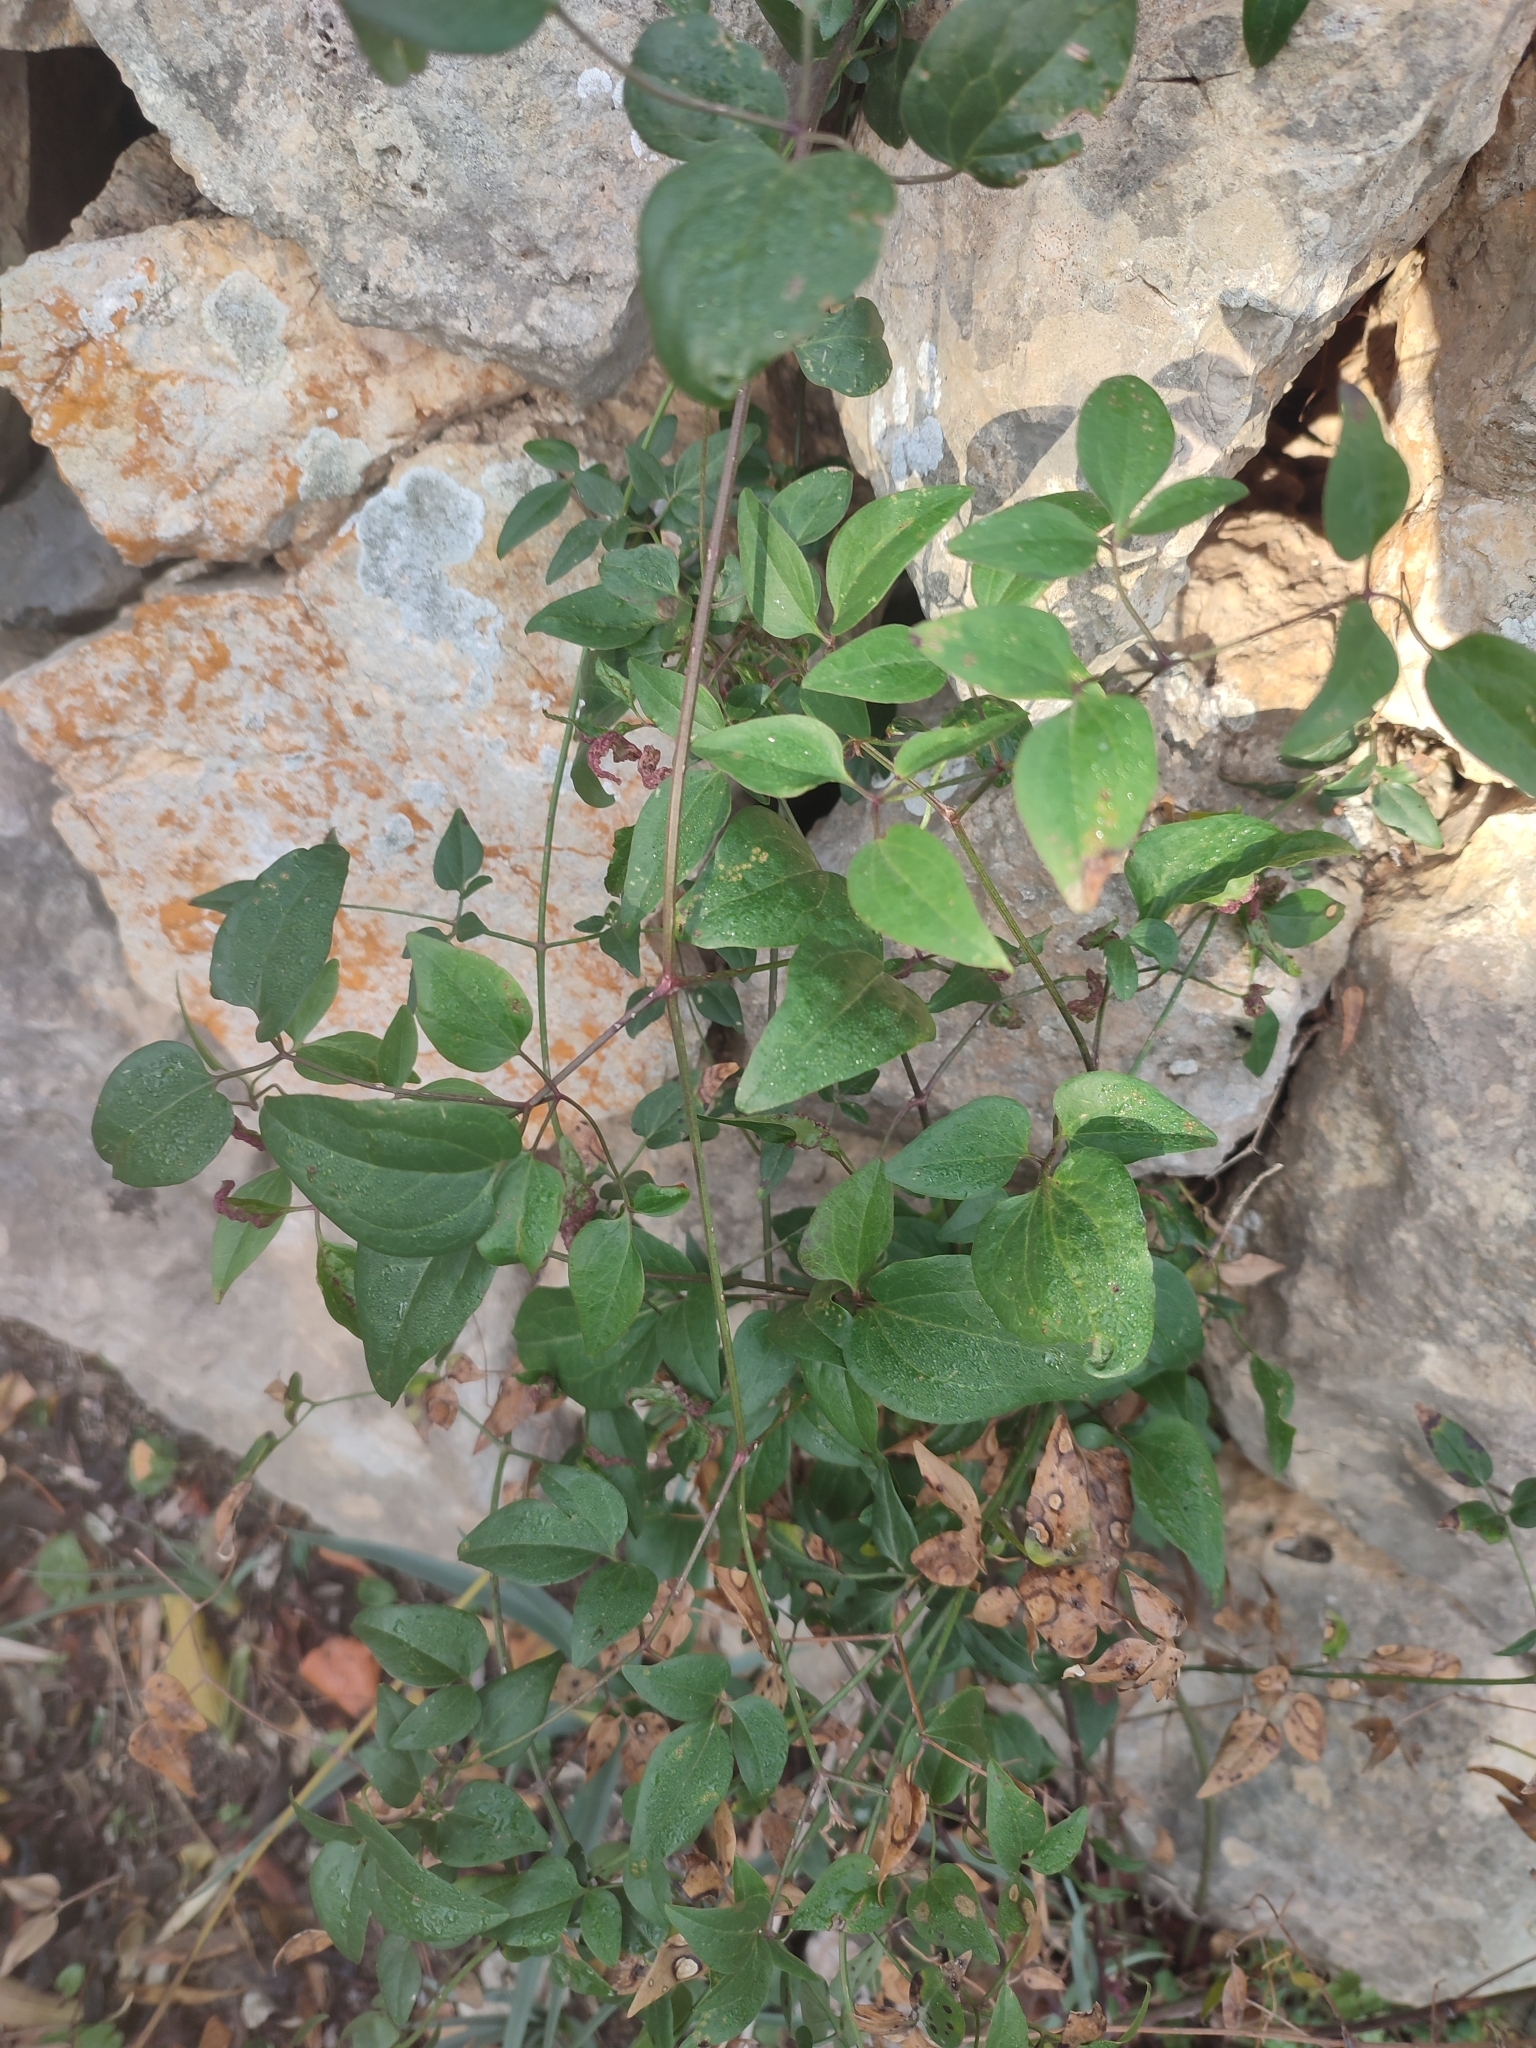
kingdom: Plantae
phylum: Tracheophyta
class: Magnoliopsida
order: Ranunculales
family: Ranunculaceae
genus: Clematis
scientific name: Clematis flammula
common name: Virgin's-bower
